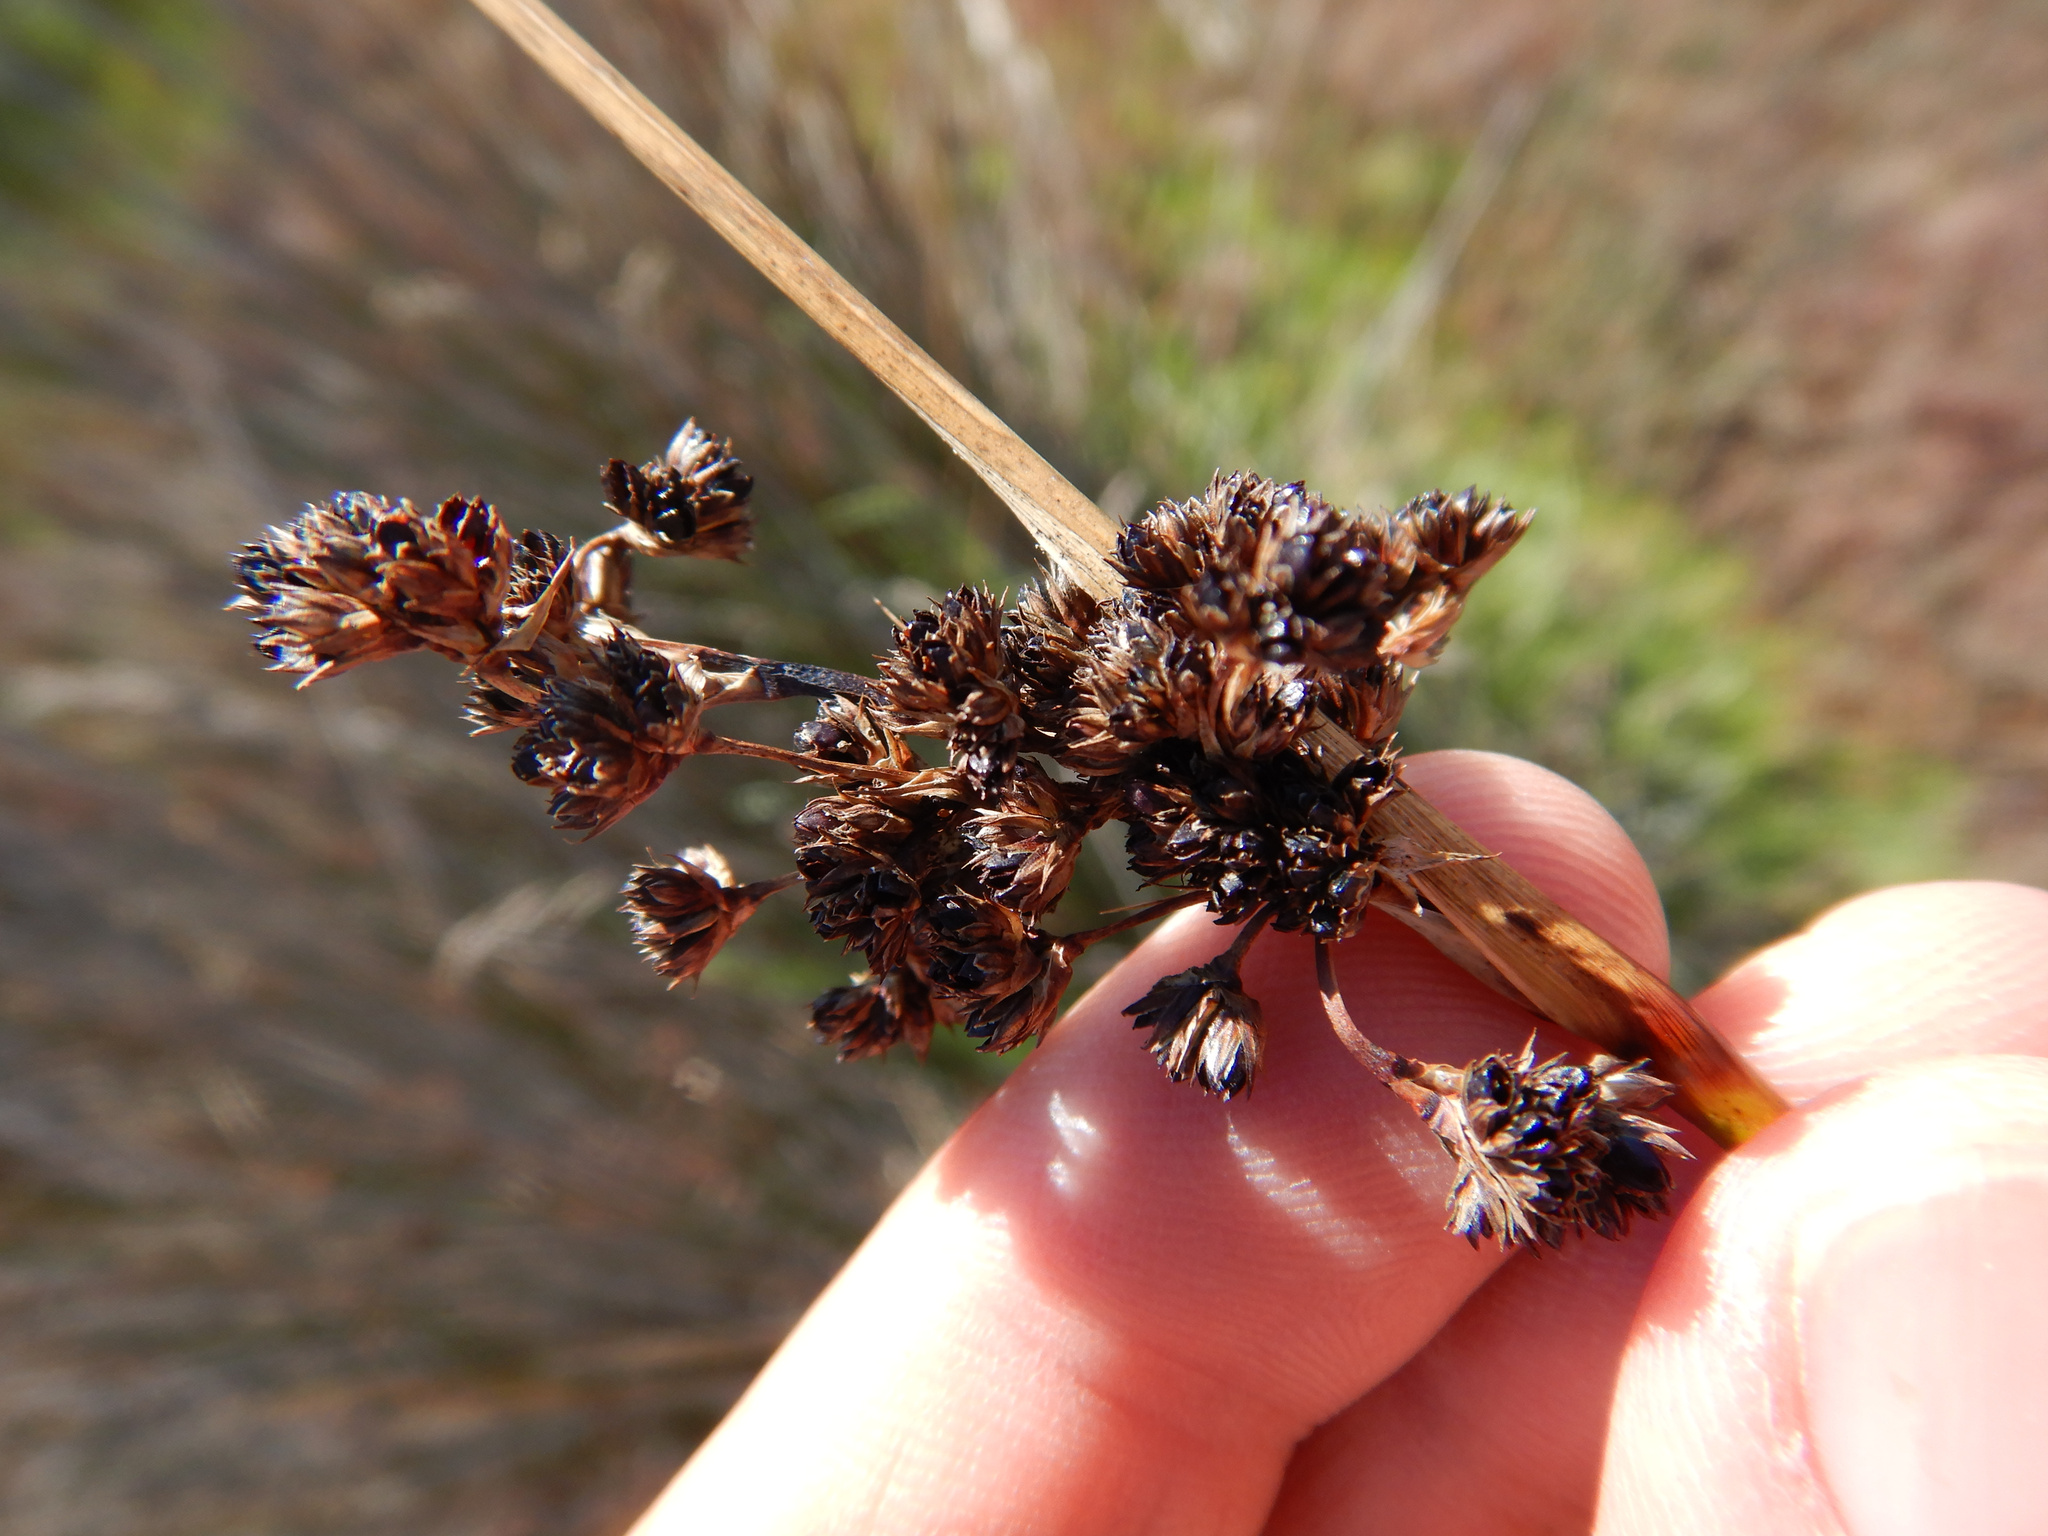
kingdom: Plantae
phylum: Tracheophyta
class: Liliopsida
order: Poales
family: Juncaceae
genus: Juncus
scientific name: Juncus kraussii
